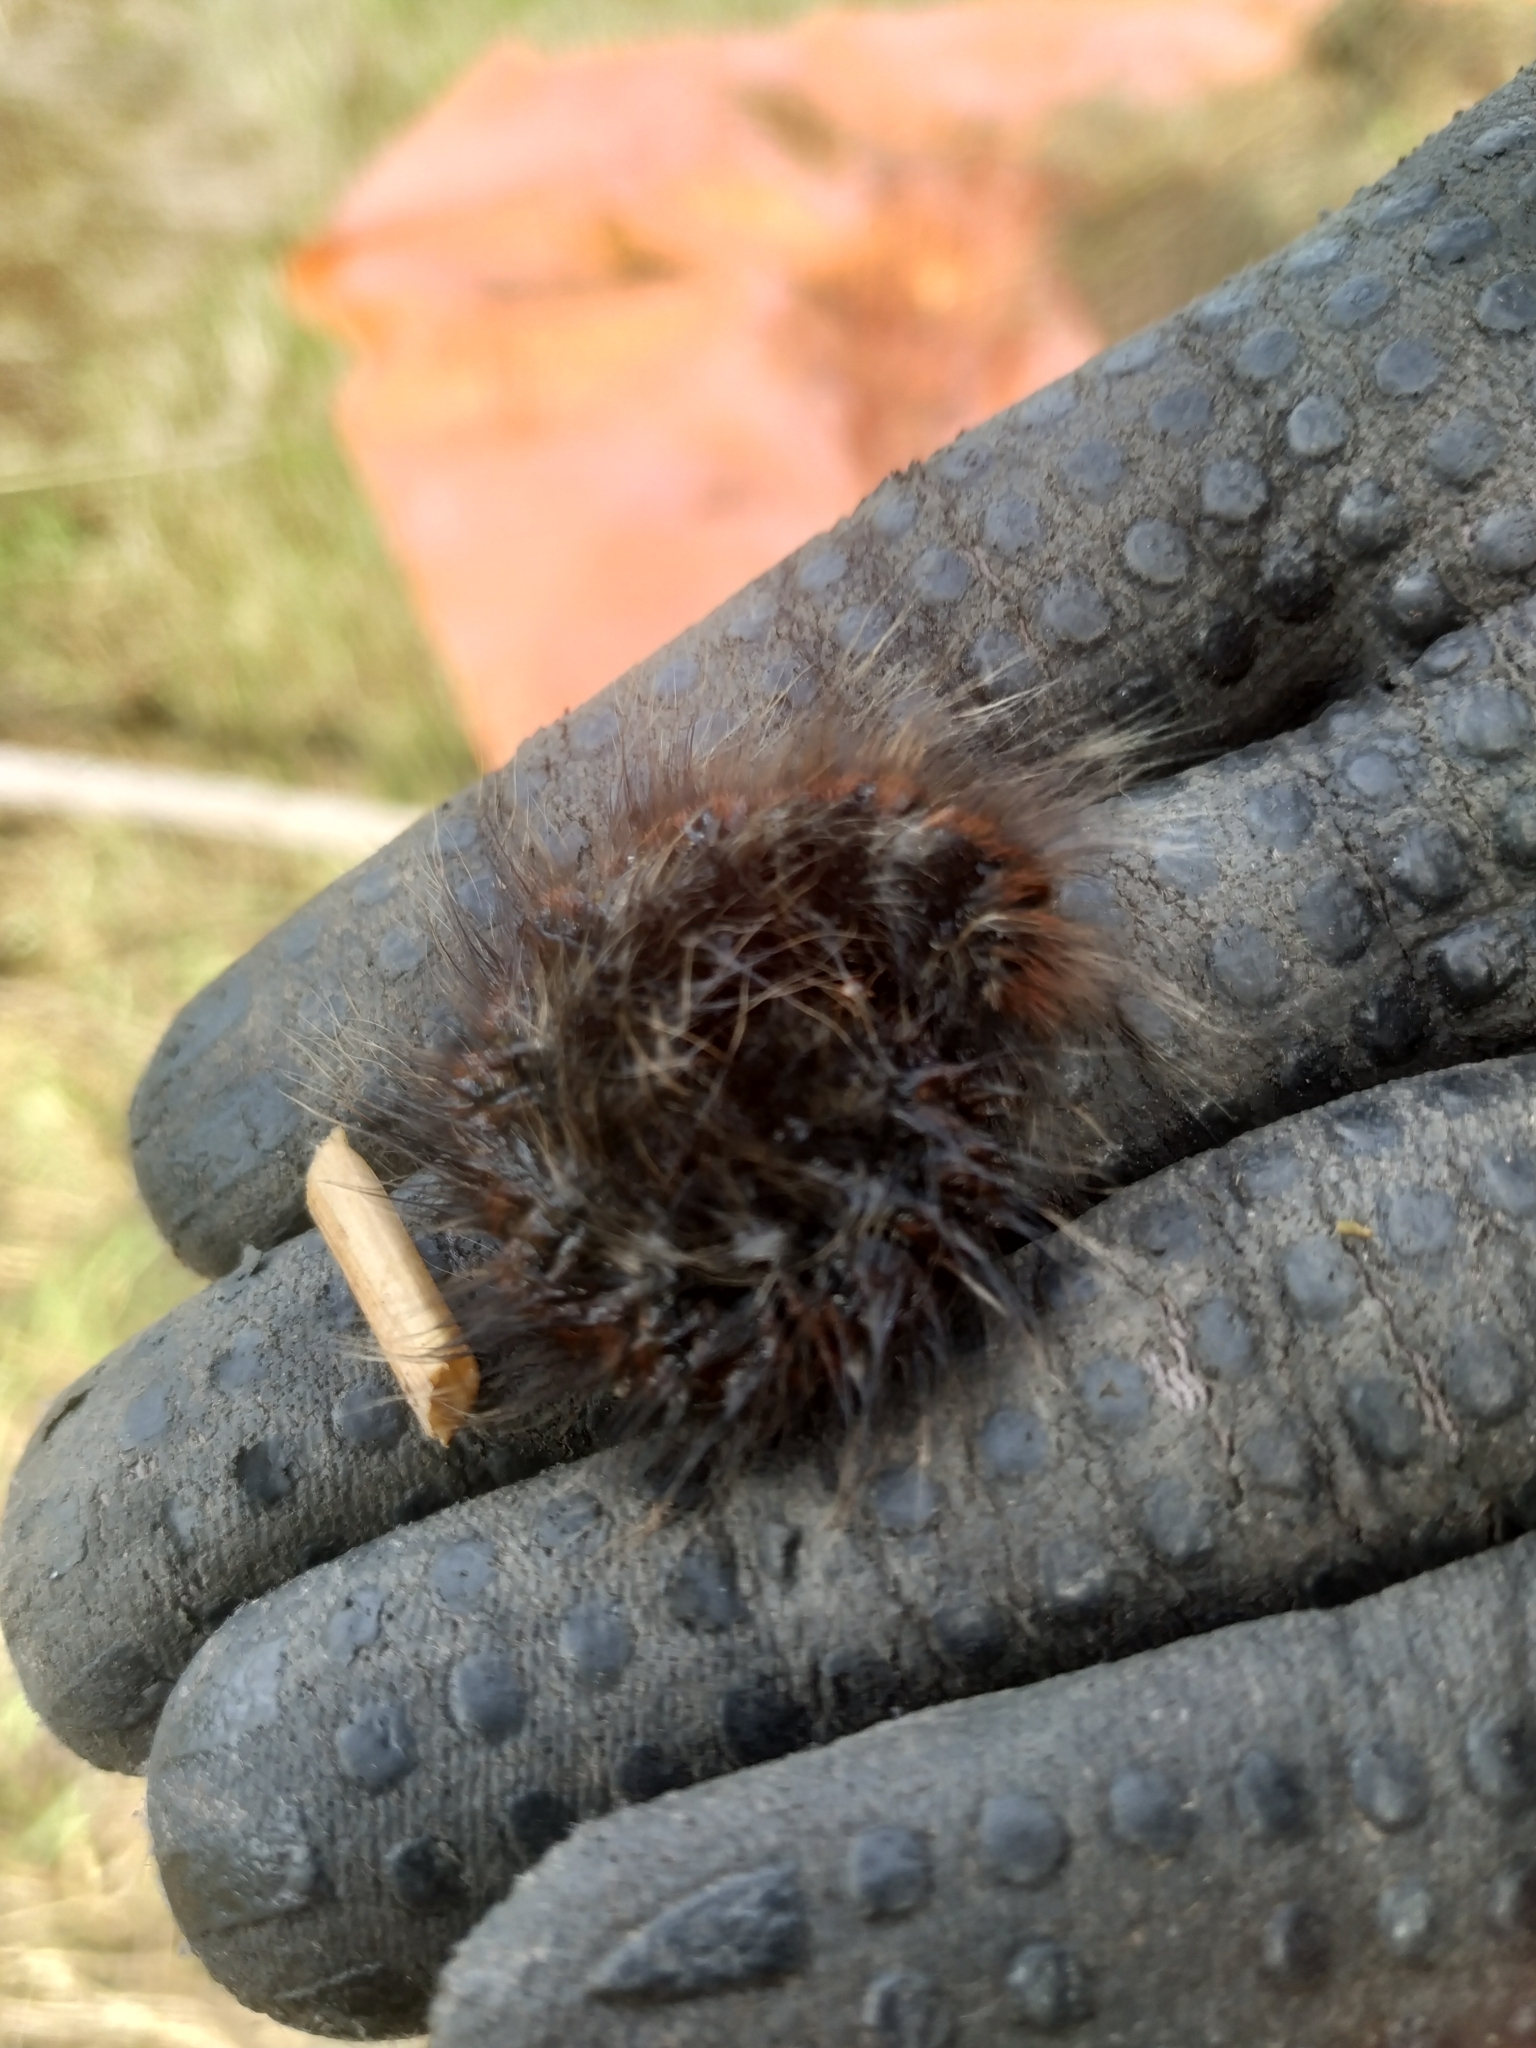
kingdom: Animalia
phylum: Arthropoda
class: Insecta
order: Lepidoptera
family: Lasiocampidae
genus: Macrothylacia
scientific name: Macrothylacia rubi
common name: Fox moth
